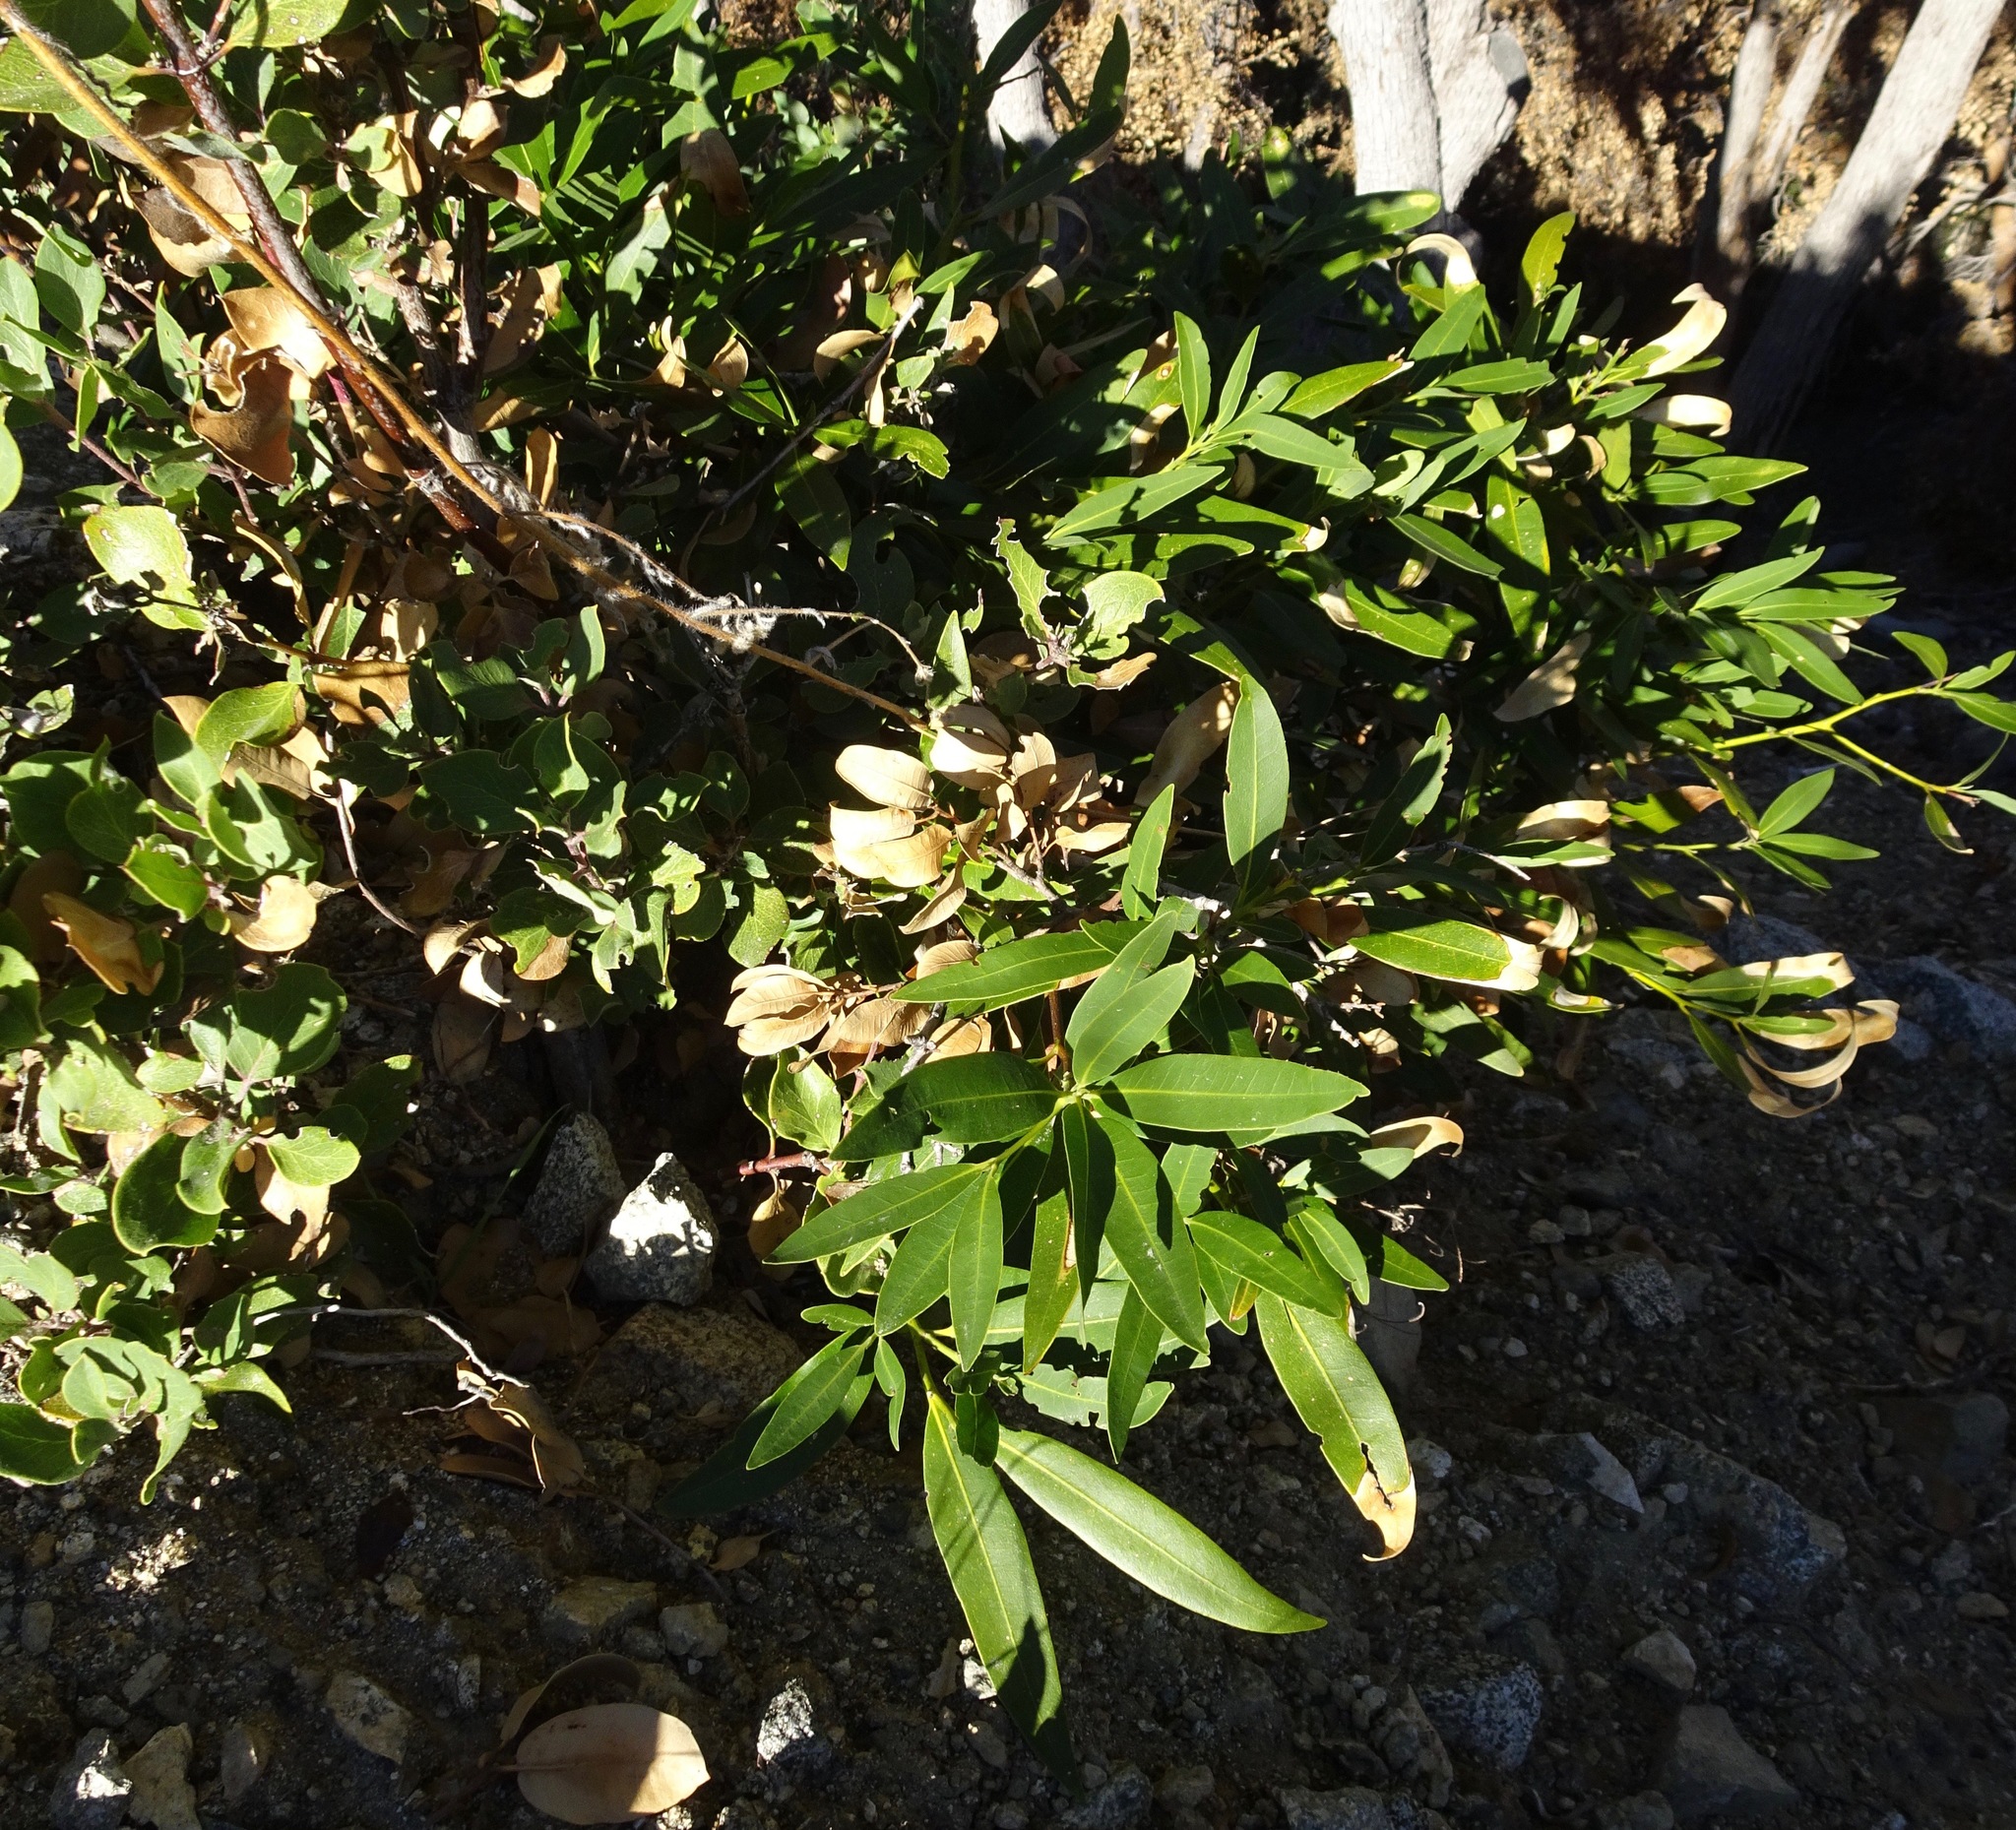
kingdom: Plantae
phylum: Tracheophyta
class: Magnoliopsida
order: Laurales
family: Lauraceae
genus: Umbellularia
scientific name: Umbellularia californica
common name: California bay
